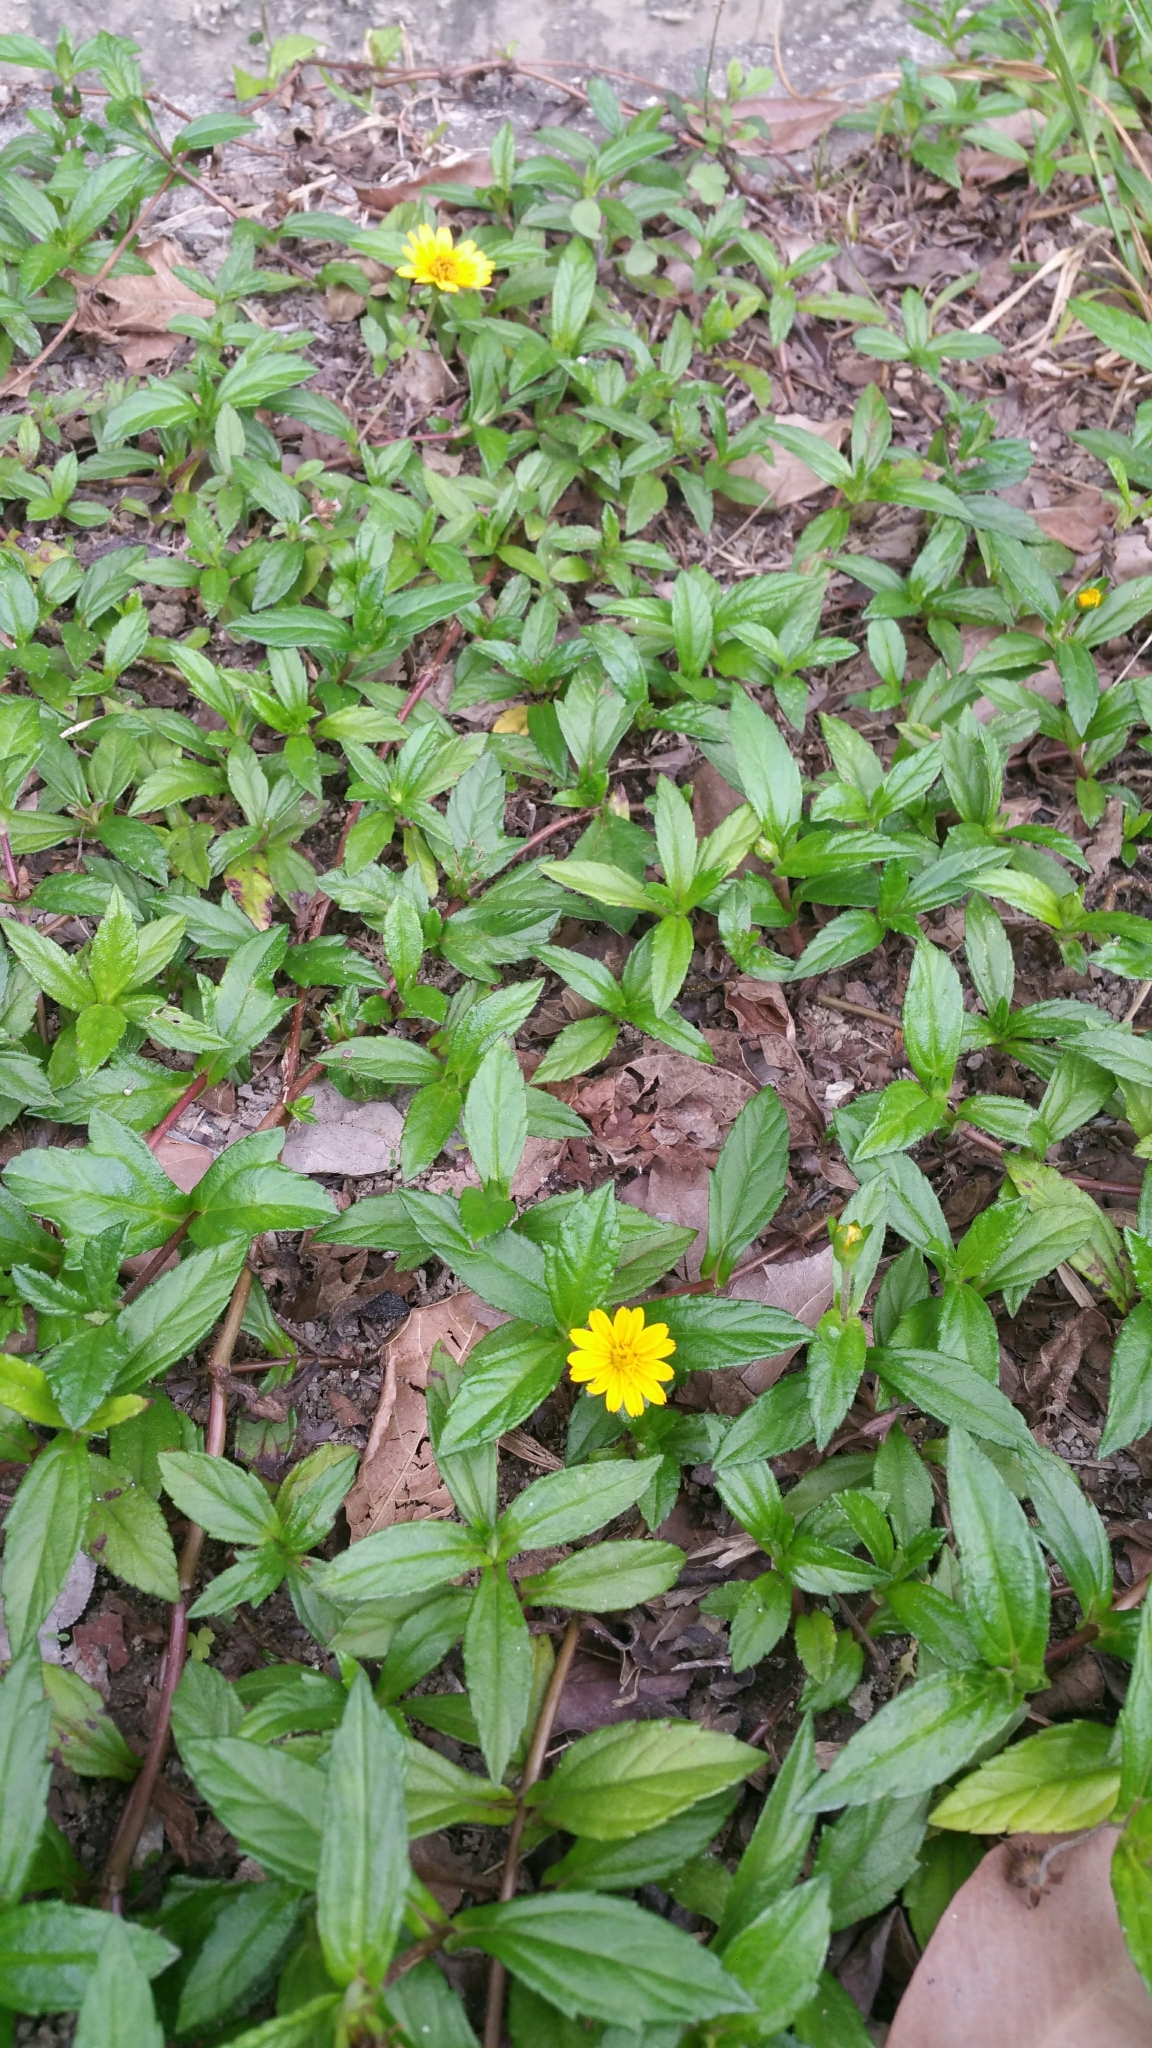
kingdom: Plantae
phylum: Tracheophyta
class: Magnoliopsida
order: Asterales
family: Asteraceae
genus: Sphagneticola
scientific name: Sphagneticola trilobata
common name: Bay biscayne creeping-oxeye
